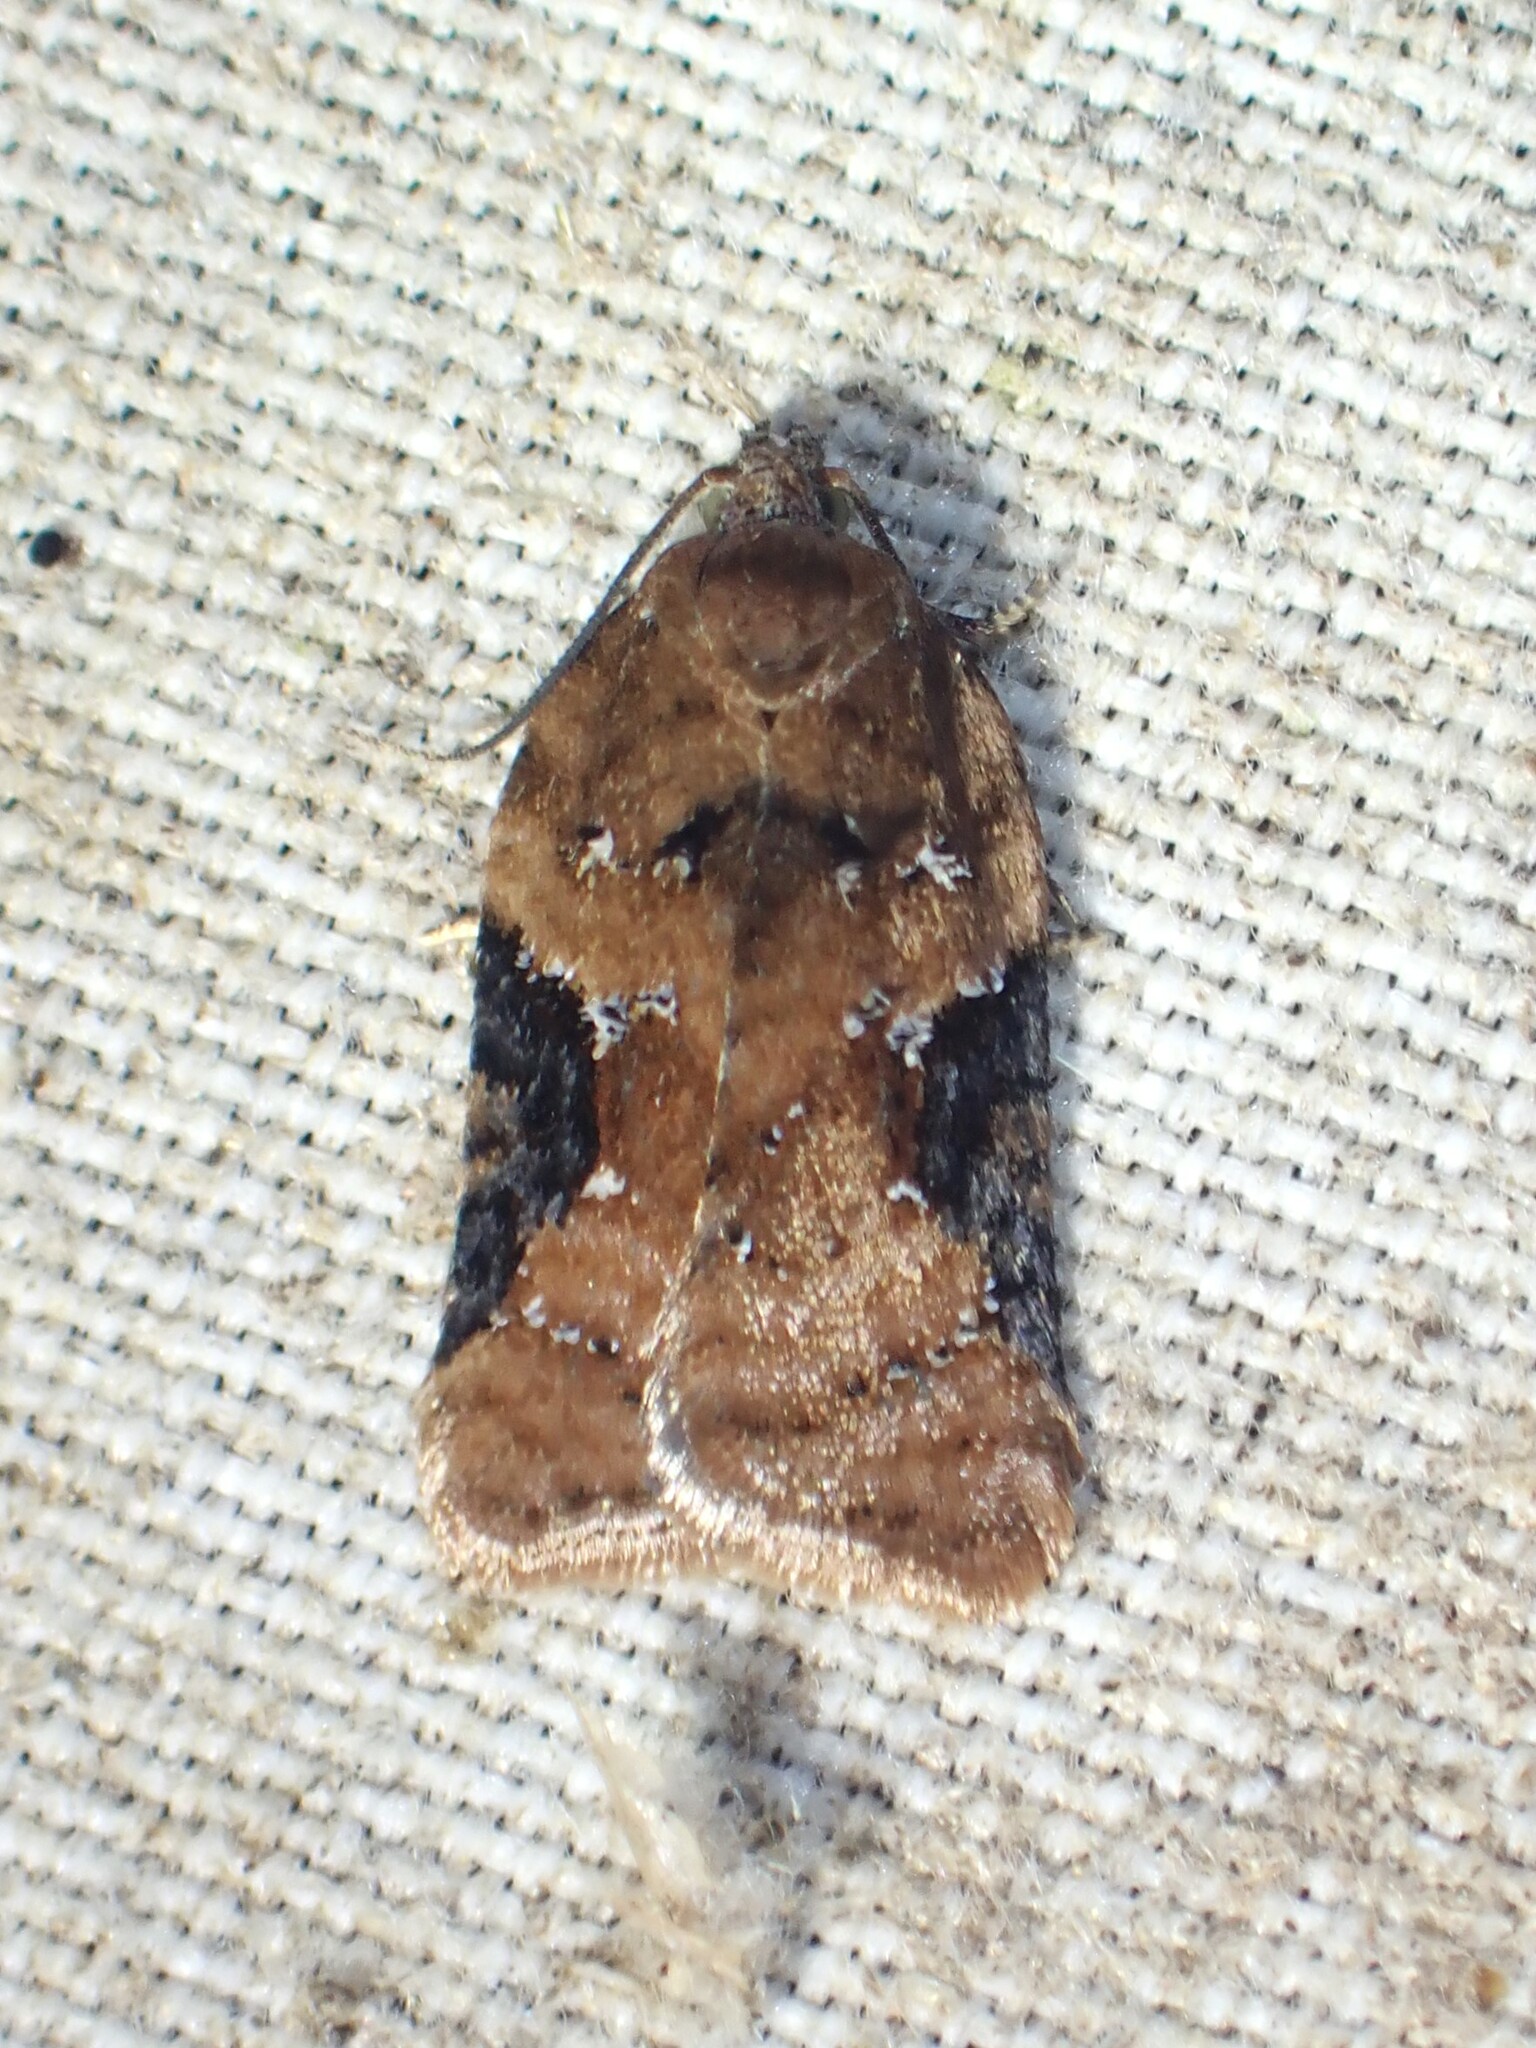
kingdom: Animalia
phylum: Arthropoda
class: Insecta
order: Lepidoptera
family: Tortricidae
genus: Acleris
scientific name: Acleris braunana
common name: Alder leafroller
